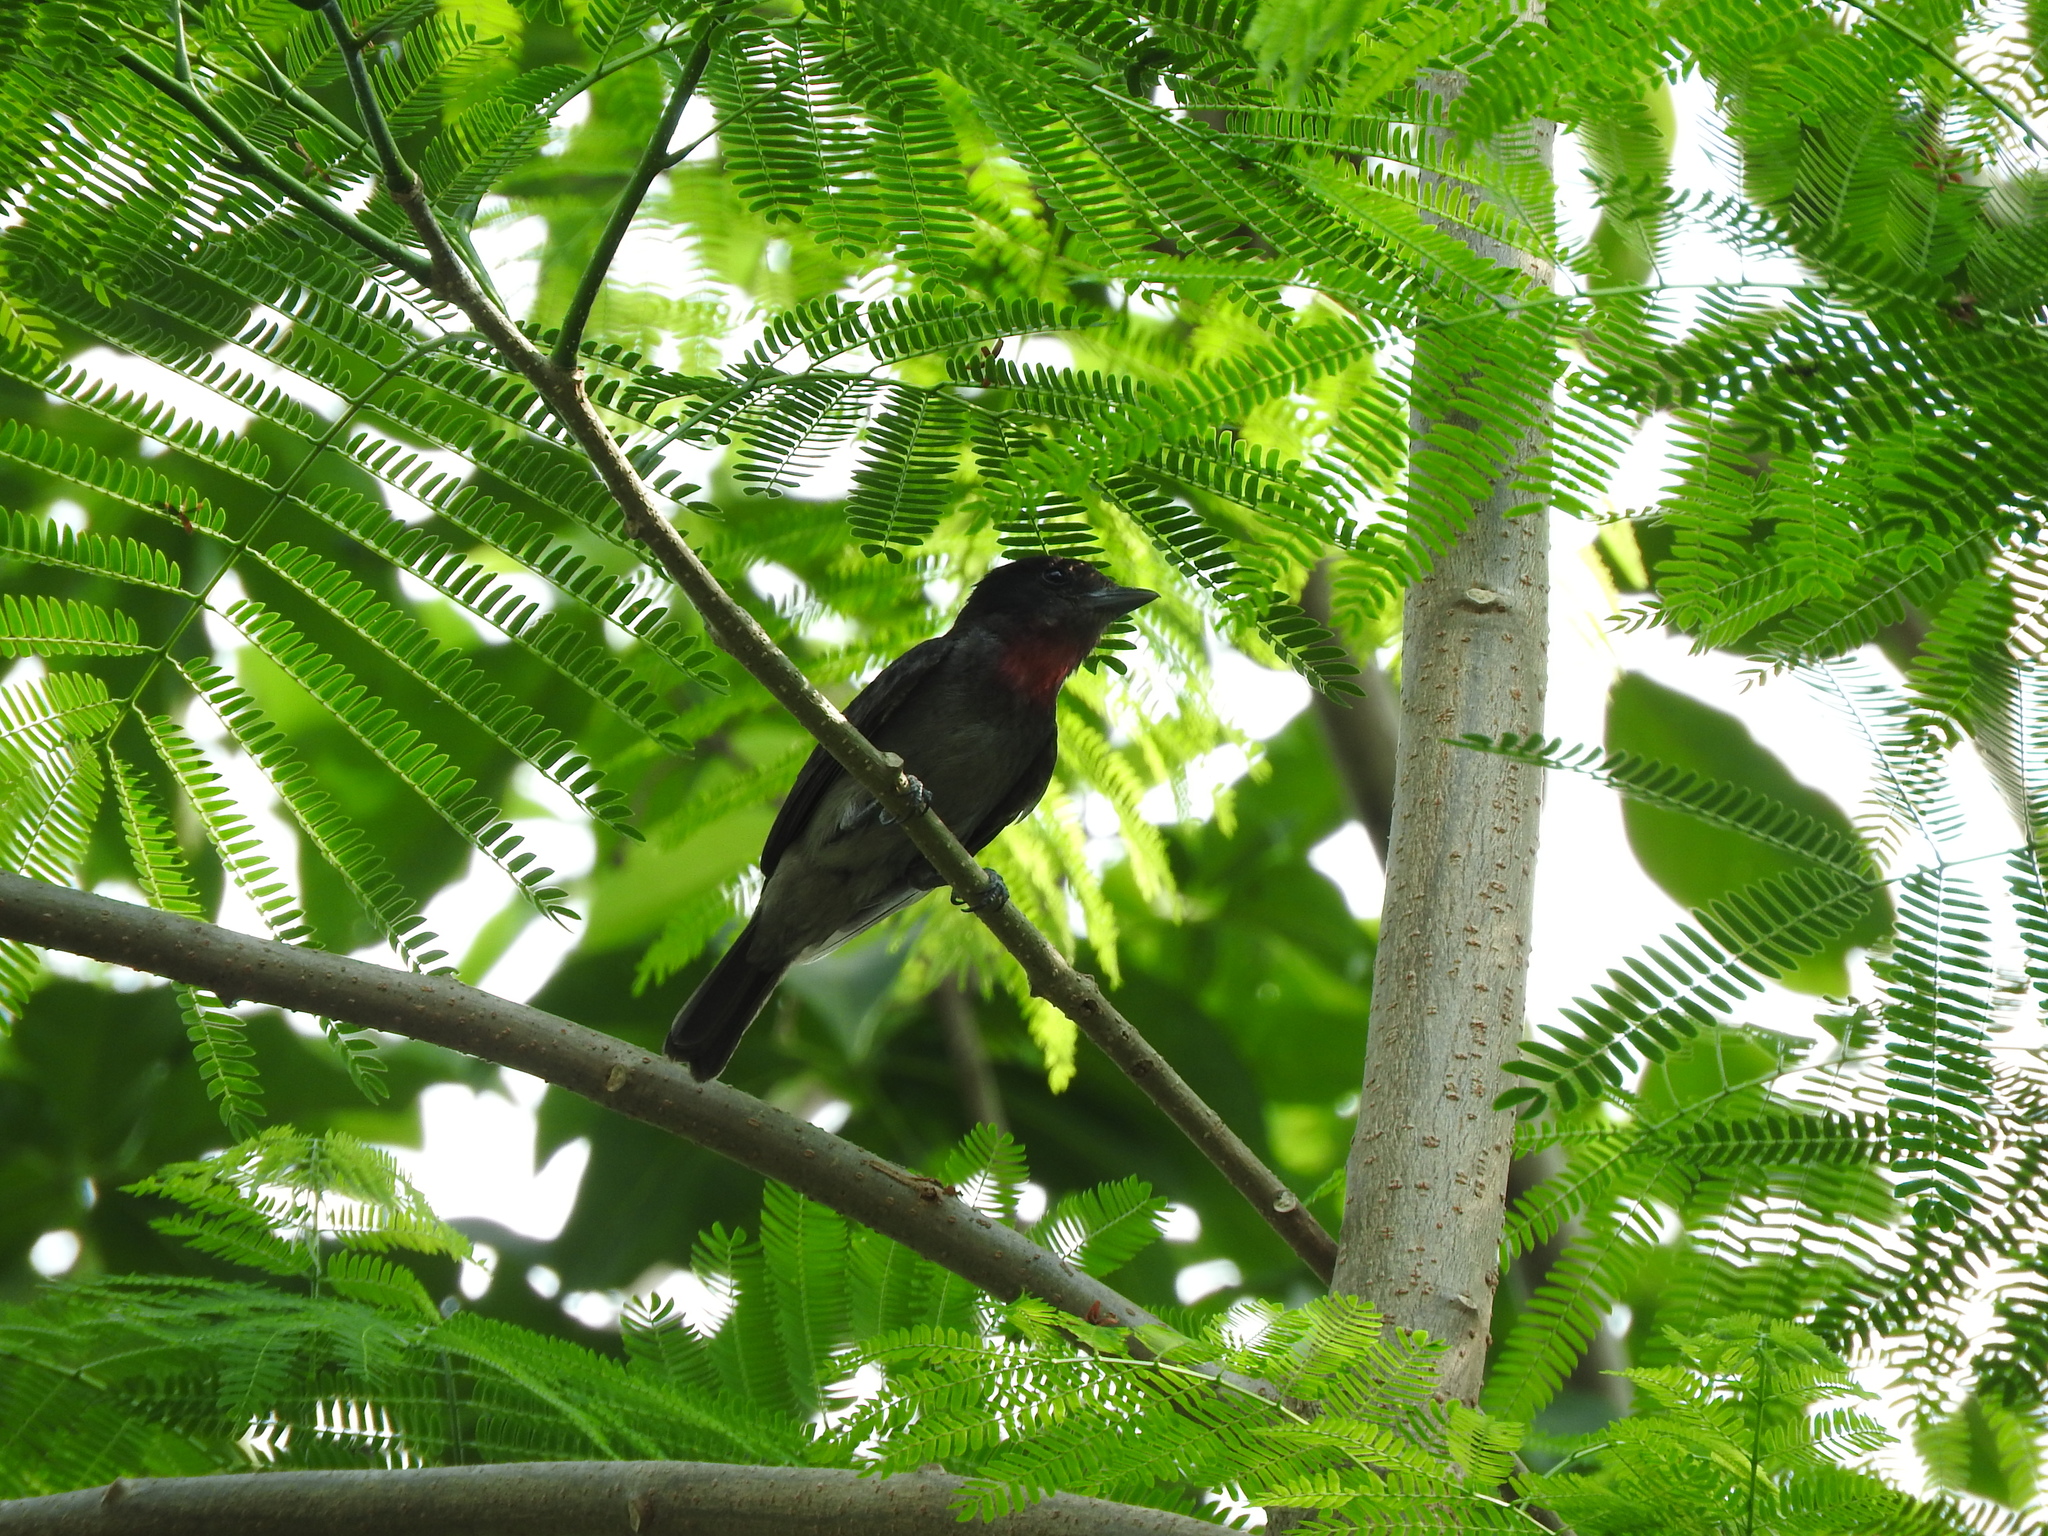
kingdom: Animalia
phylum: Chordata
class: Aves
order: Passeriformes
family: Cotingidae
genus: Pachyramphus
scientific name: Pachyramphus aglaiae
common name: Rose-throated becard
